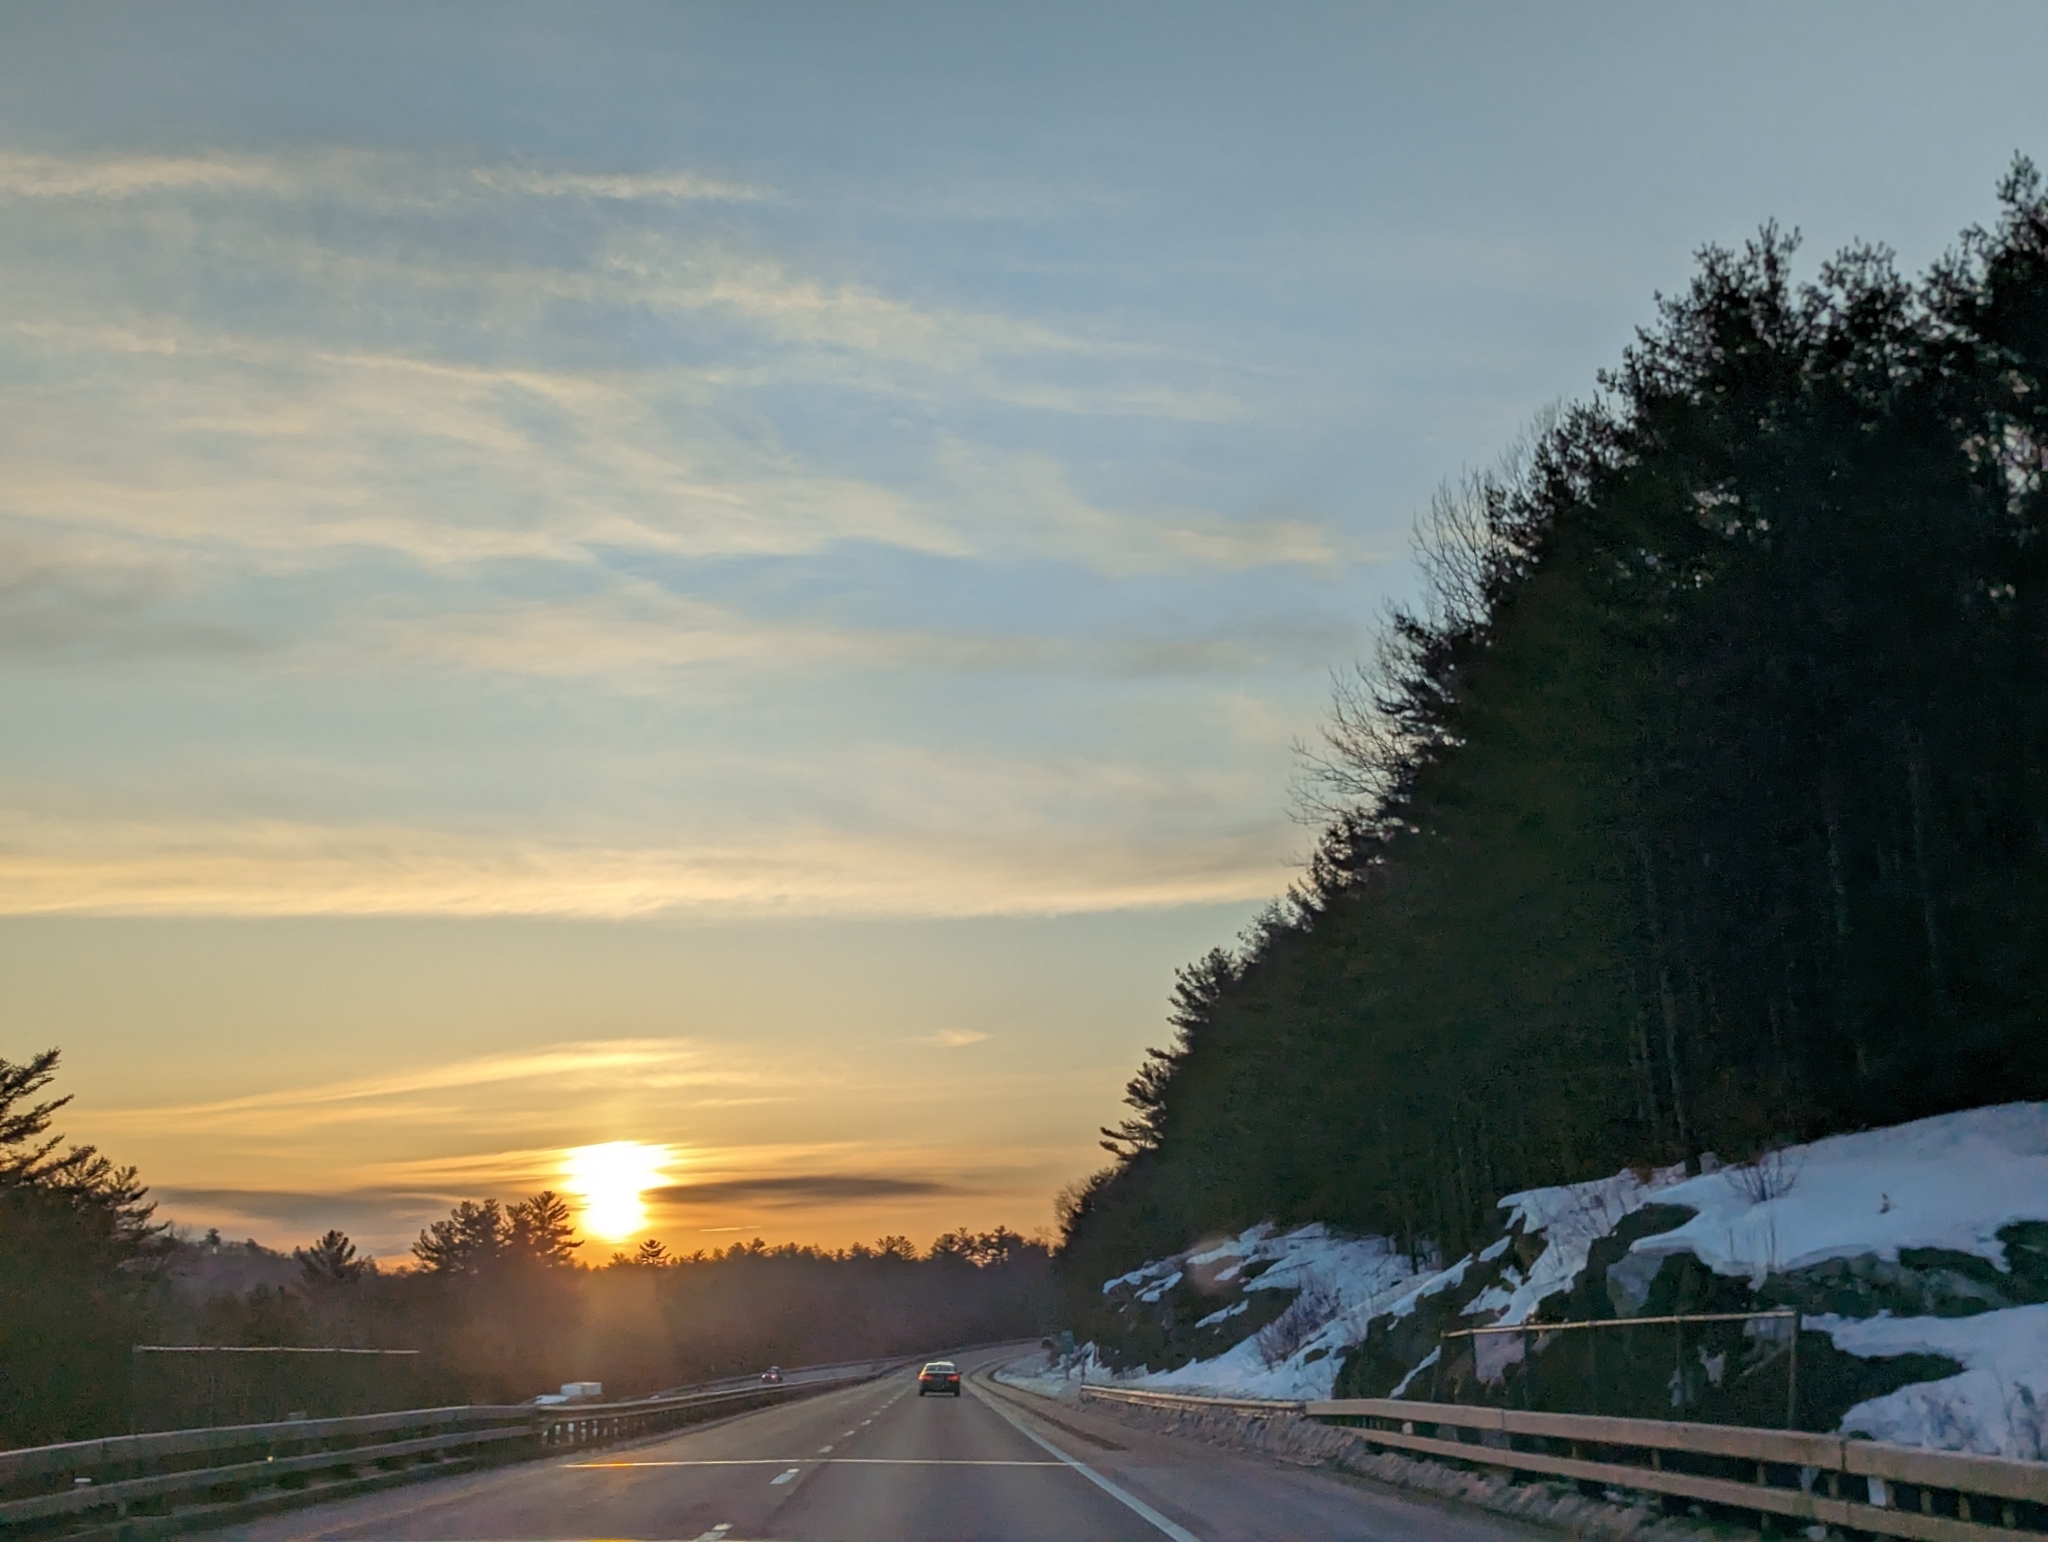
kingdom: Plantae
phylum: Tracheophyta
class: Pinopsida
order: Pinales
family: Pinaceae
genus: Pinus
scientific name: Pinus strobus
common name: Weymouth pine
